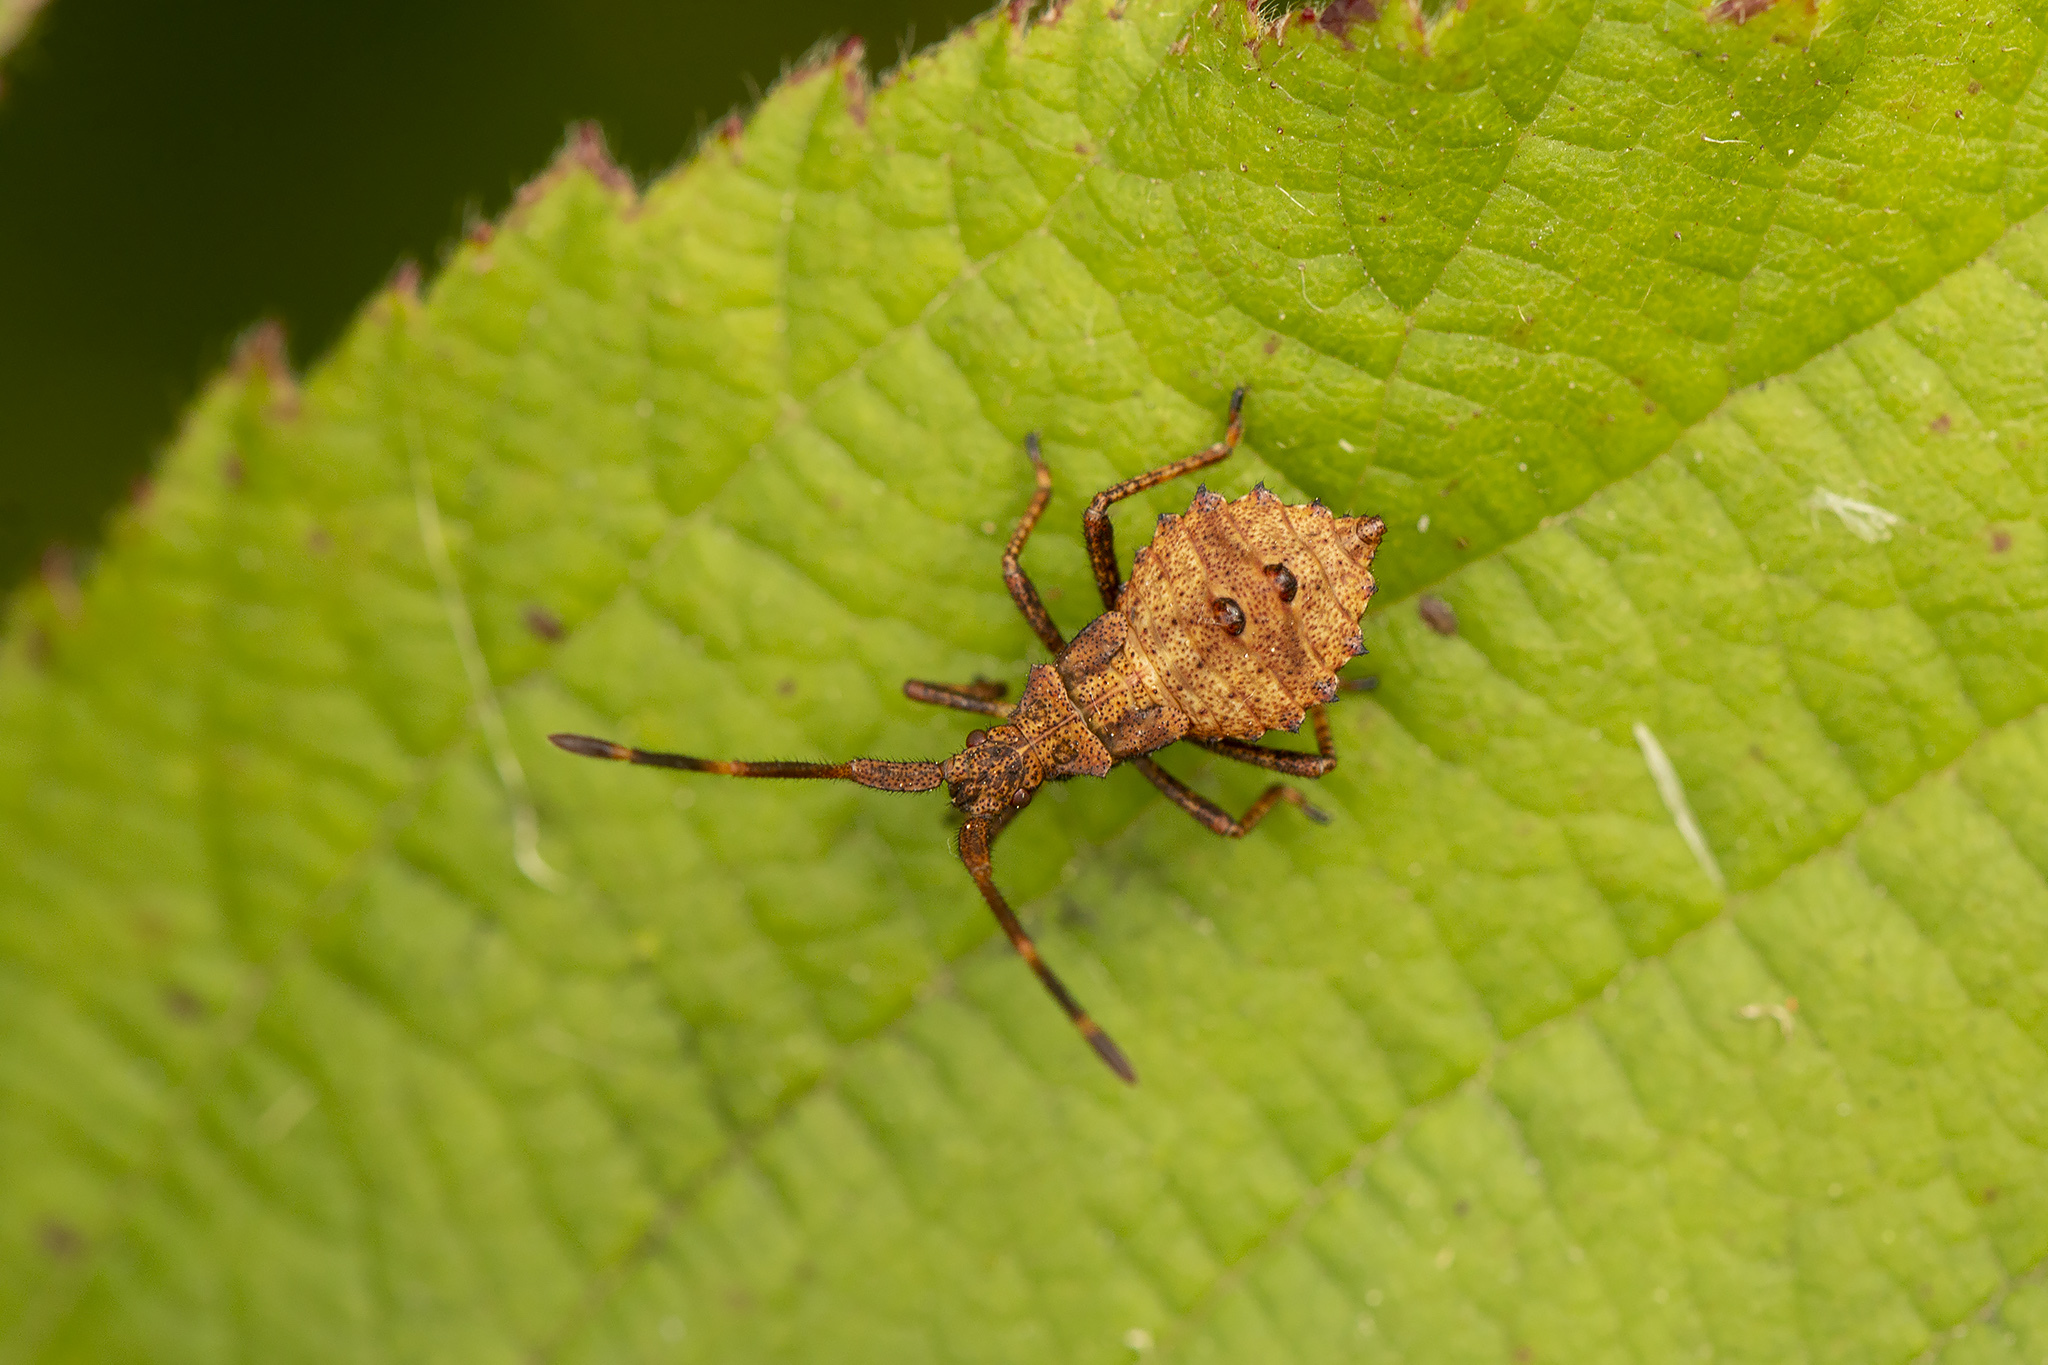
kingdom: Animalia
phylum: Arthropoda
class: Insecta
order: Hemiptera
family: Coreidae
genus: Coreus
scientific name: Coreus marginatus
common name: Dock bug
